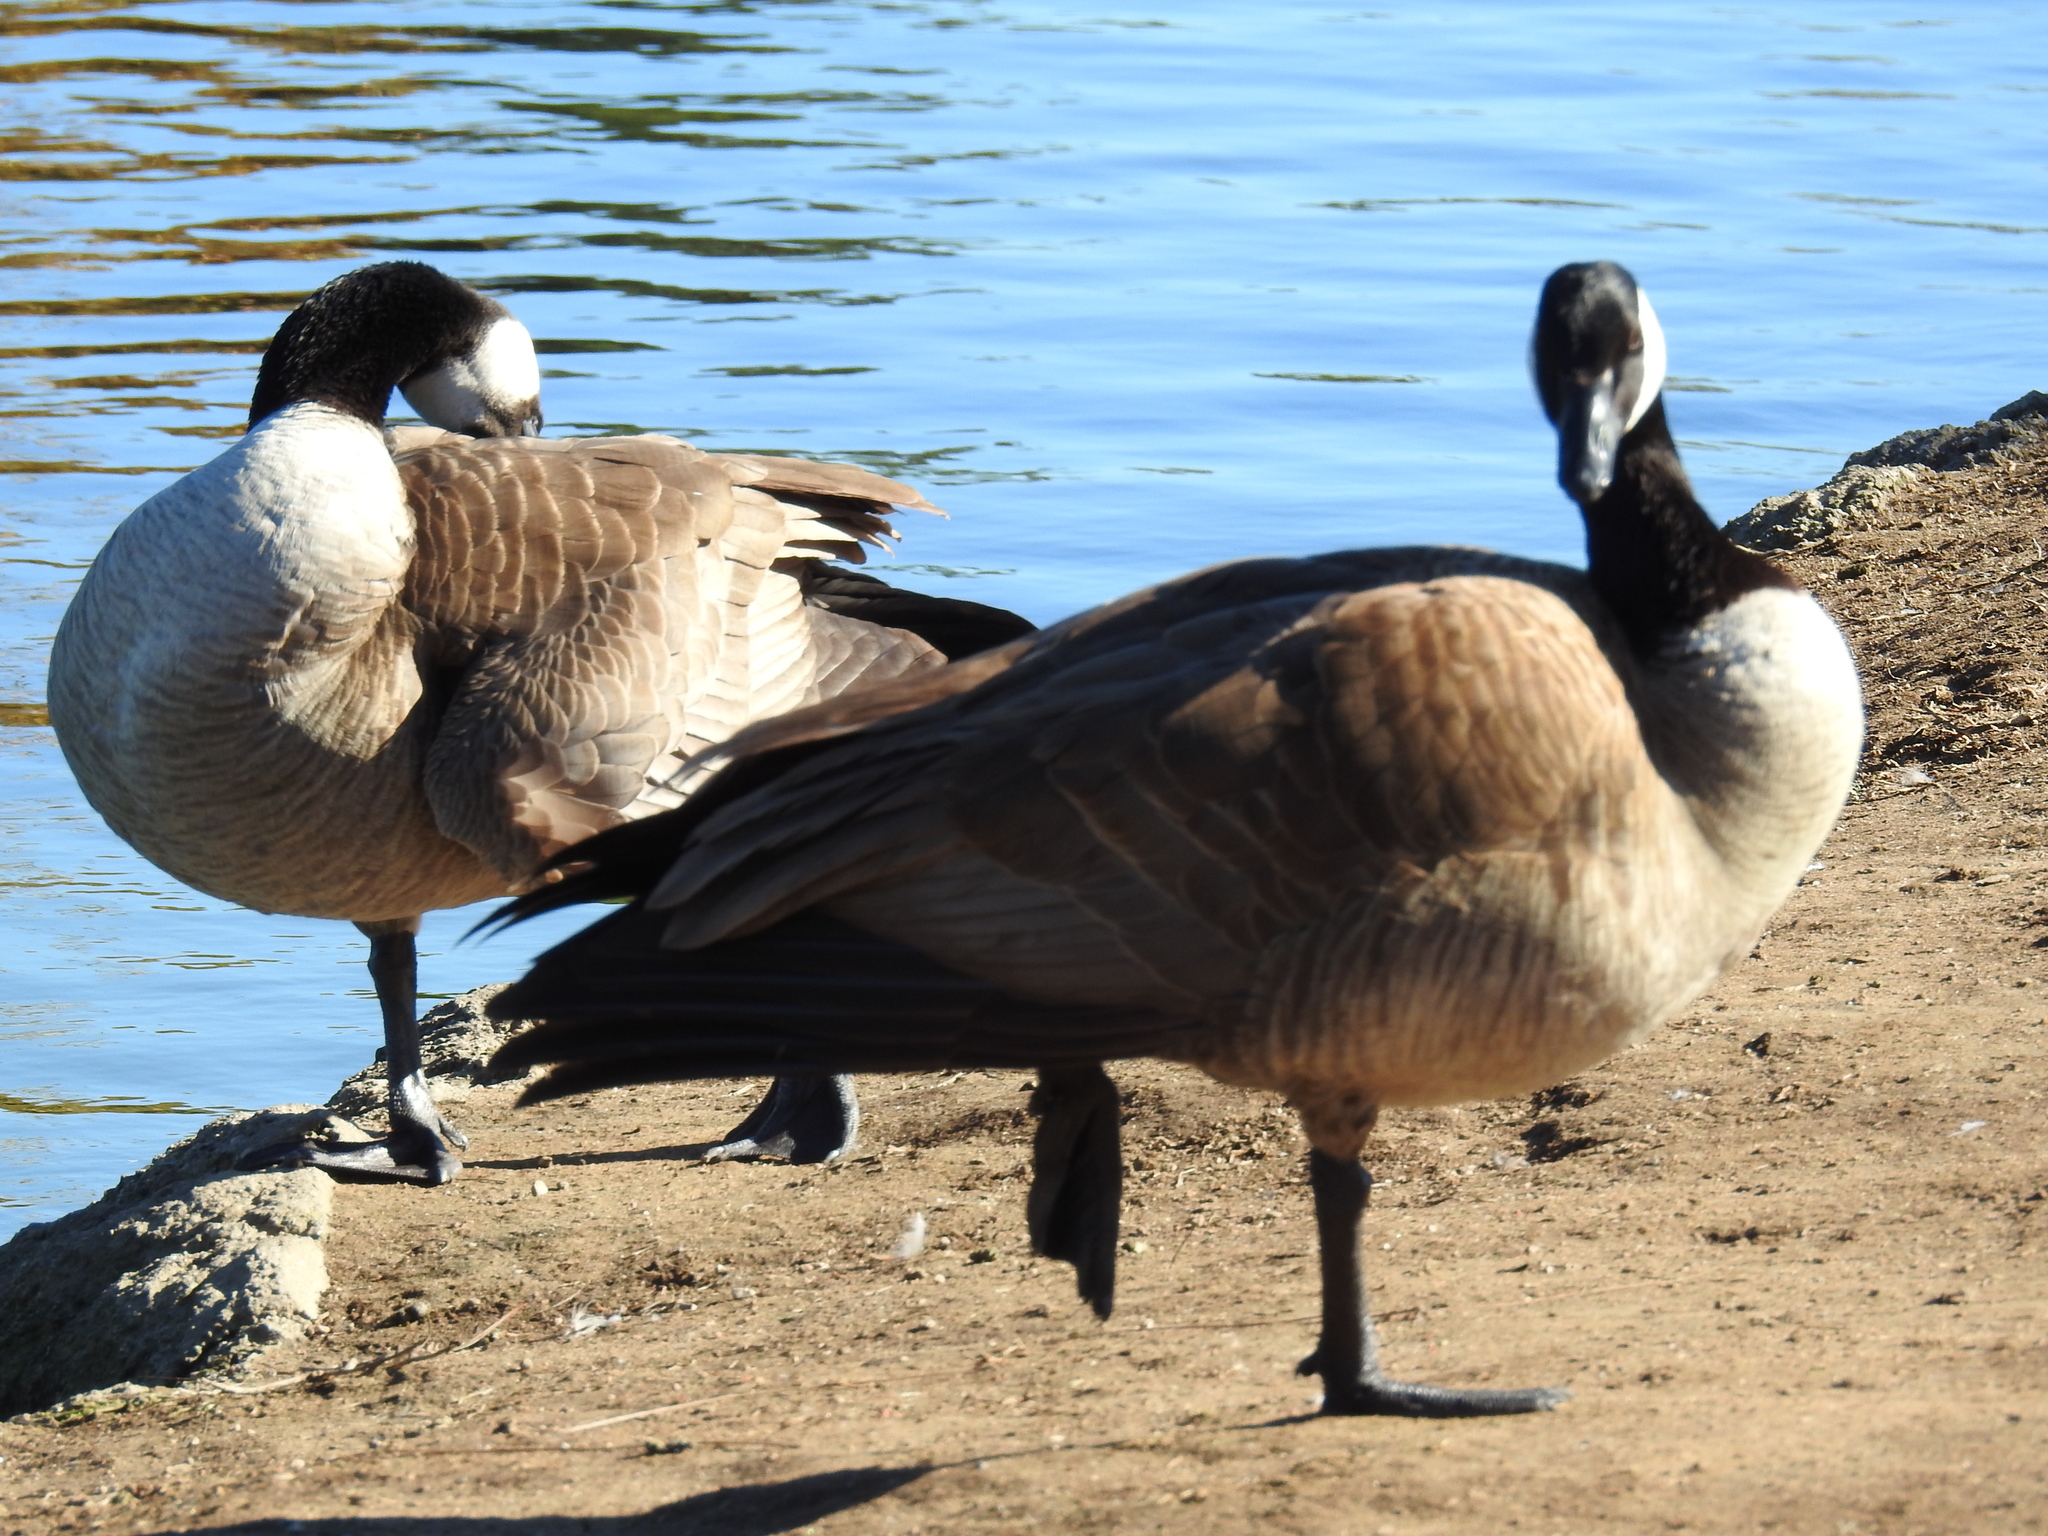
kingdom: Animalia
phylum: Chordata
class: Aves
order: Anseriformes
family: Anatidae
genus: Branta
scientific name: Branta canadensis
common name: Canada goose
